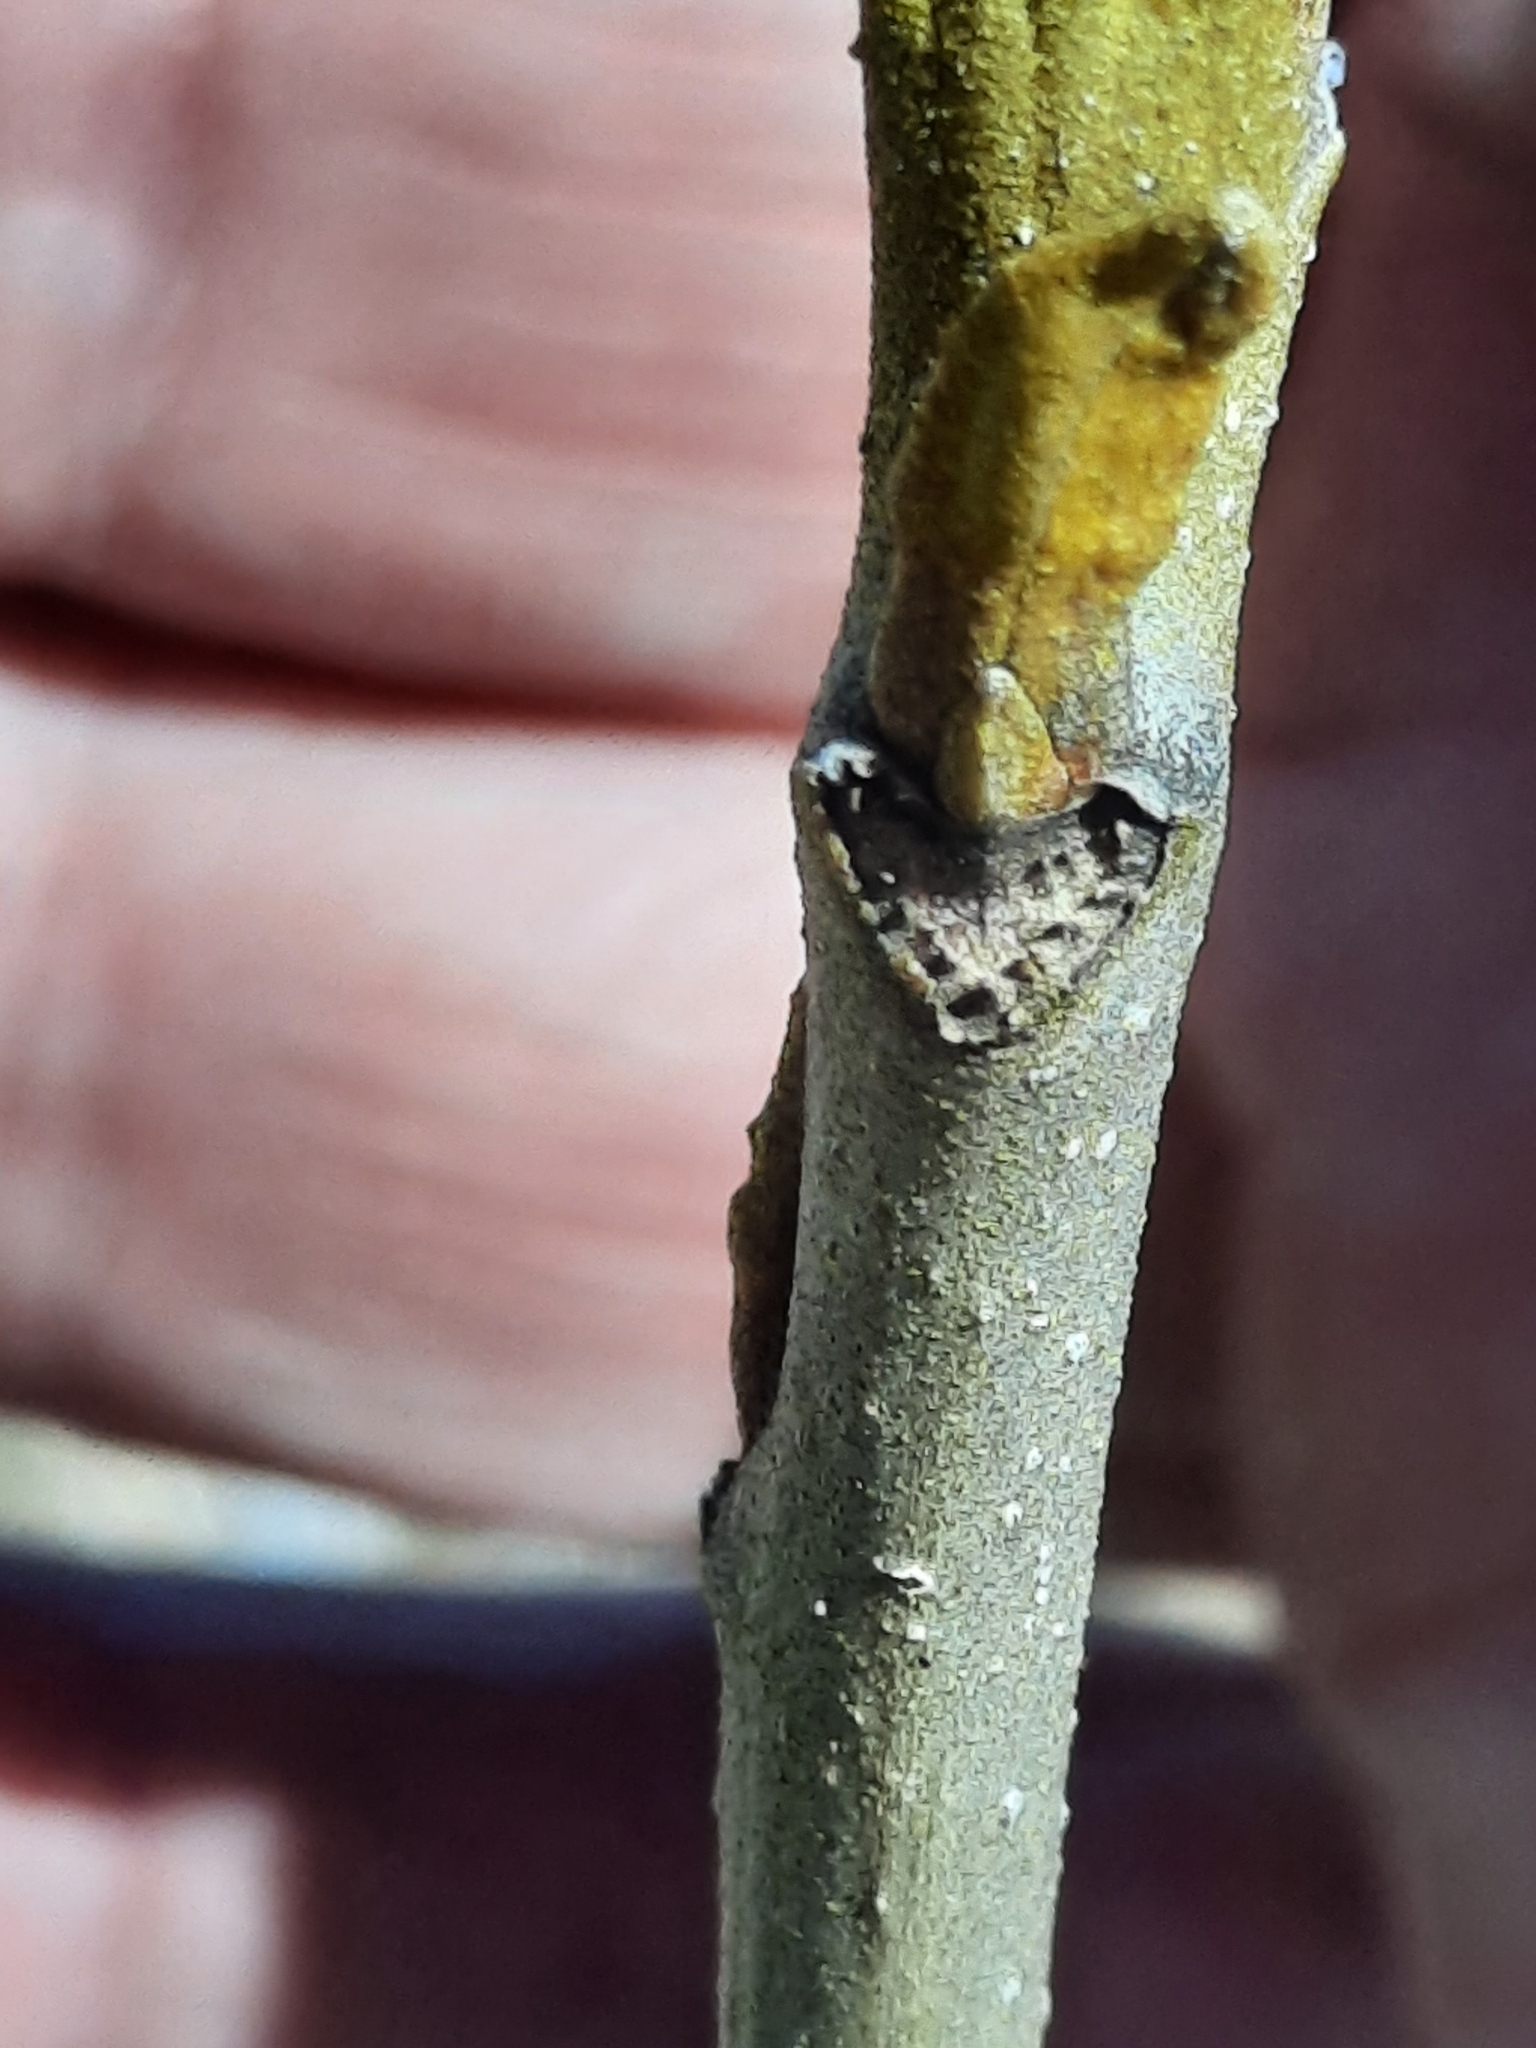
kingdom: Plantae
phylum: Tracheophyta
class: Magnoliopsida
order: Fagales
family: Juglandaceae
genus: Carya
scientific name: Carya cordiformis
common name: Bitternut hickory
